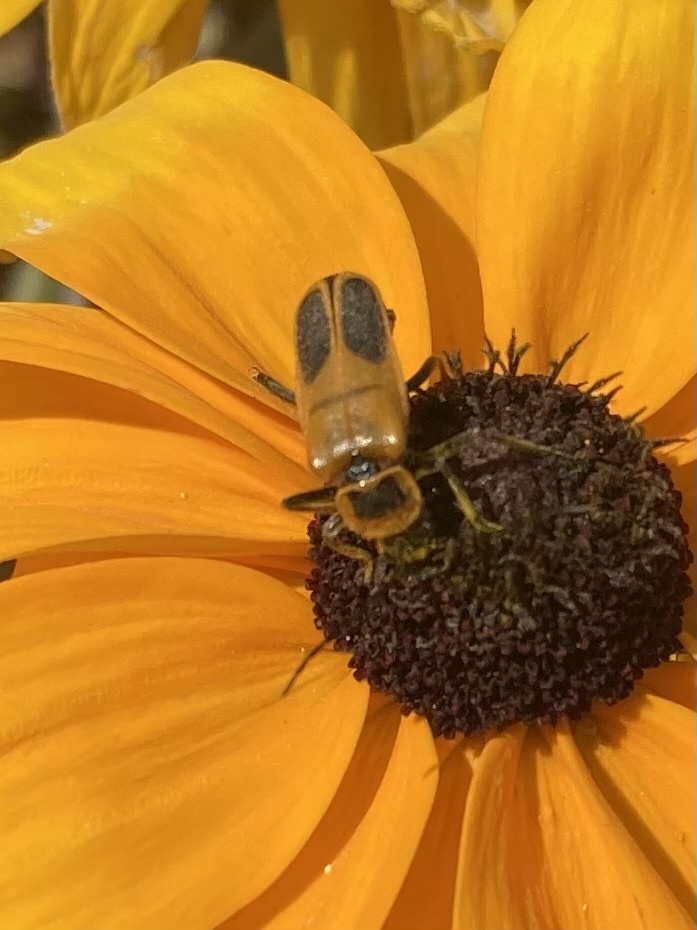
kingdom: Animalia
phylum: Arthropoda
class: Insecta
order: Coleoptera
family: Cantharidae
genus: Chauliognathus
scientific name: Chauliognathus pensylvanicus
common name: Goldenrod soldier beetle
